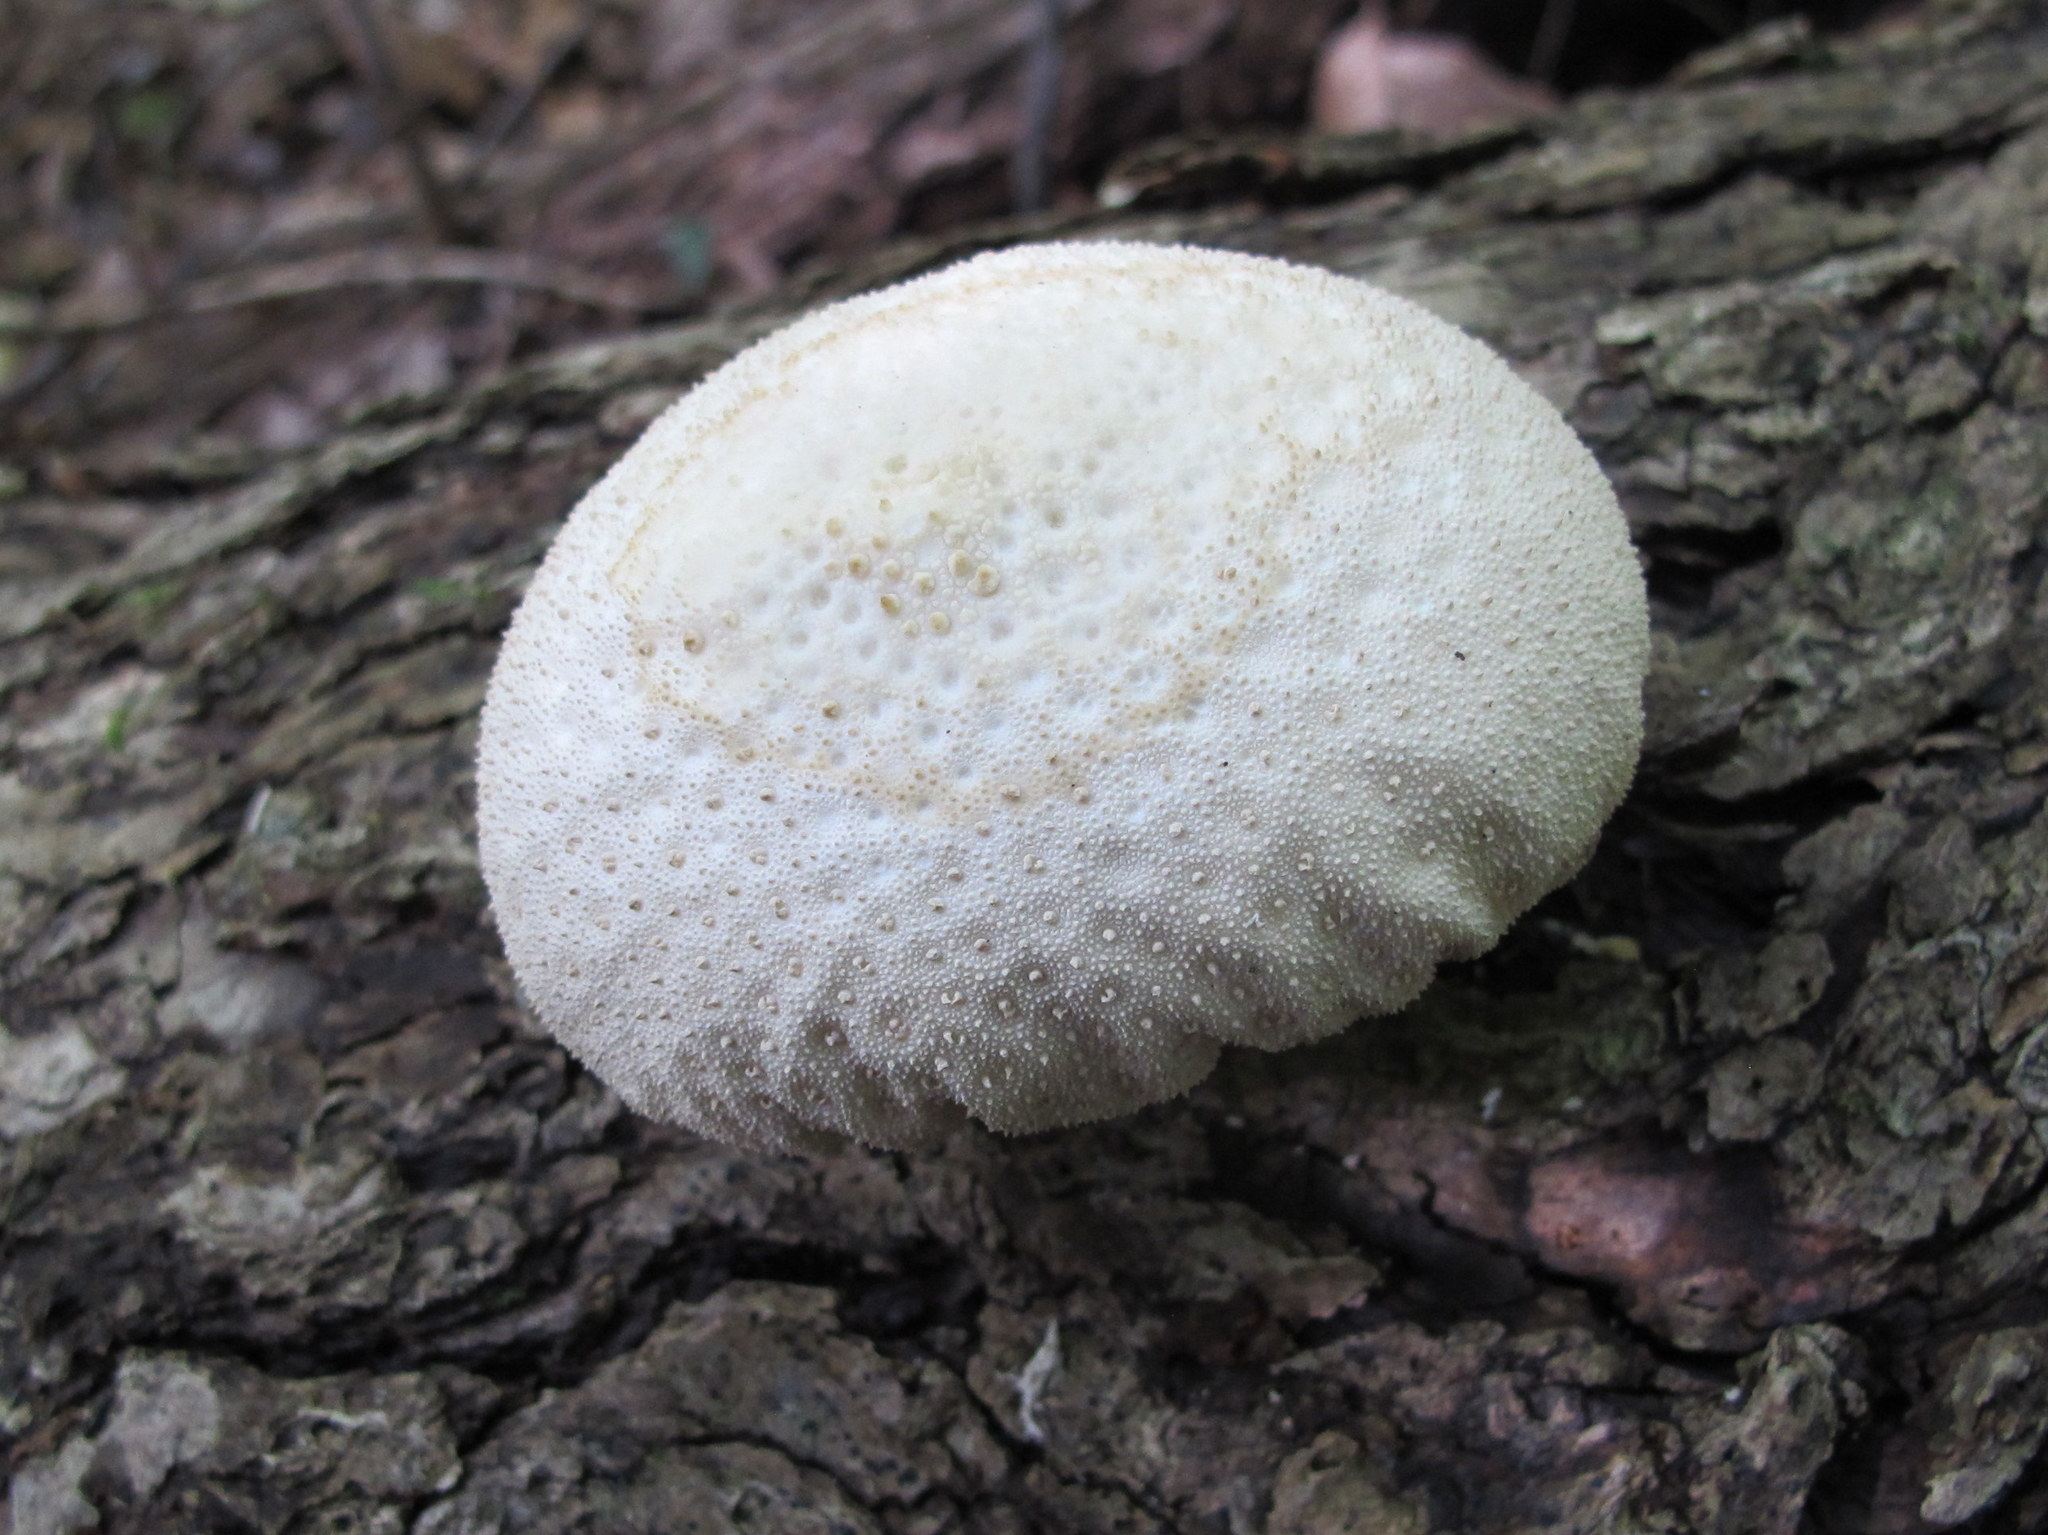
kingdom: Fungi
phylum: Basidiomycota
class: Agaricomycetes
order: Agaricales
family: Lycoperdaceae
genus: Lycoperdon
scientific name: Lycoperdon perlatum
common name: Common puffball
